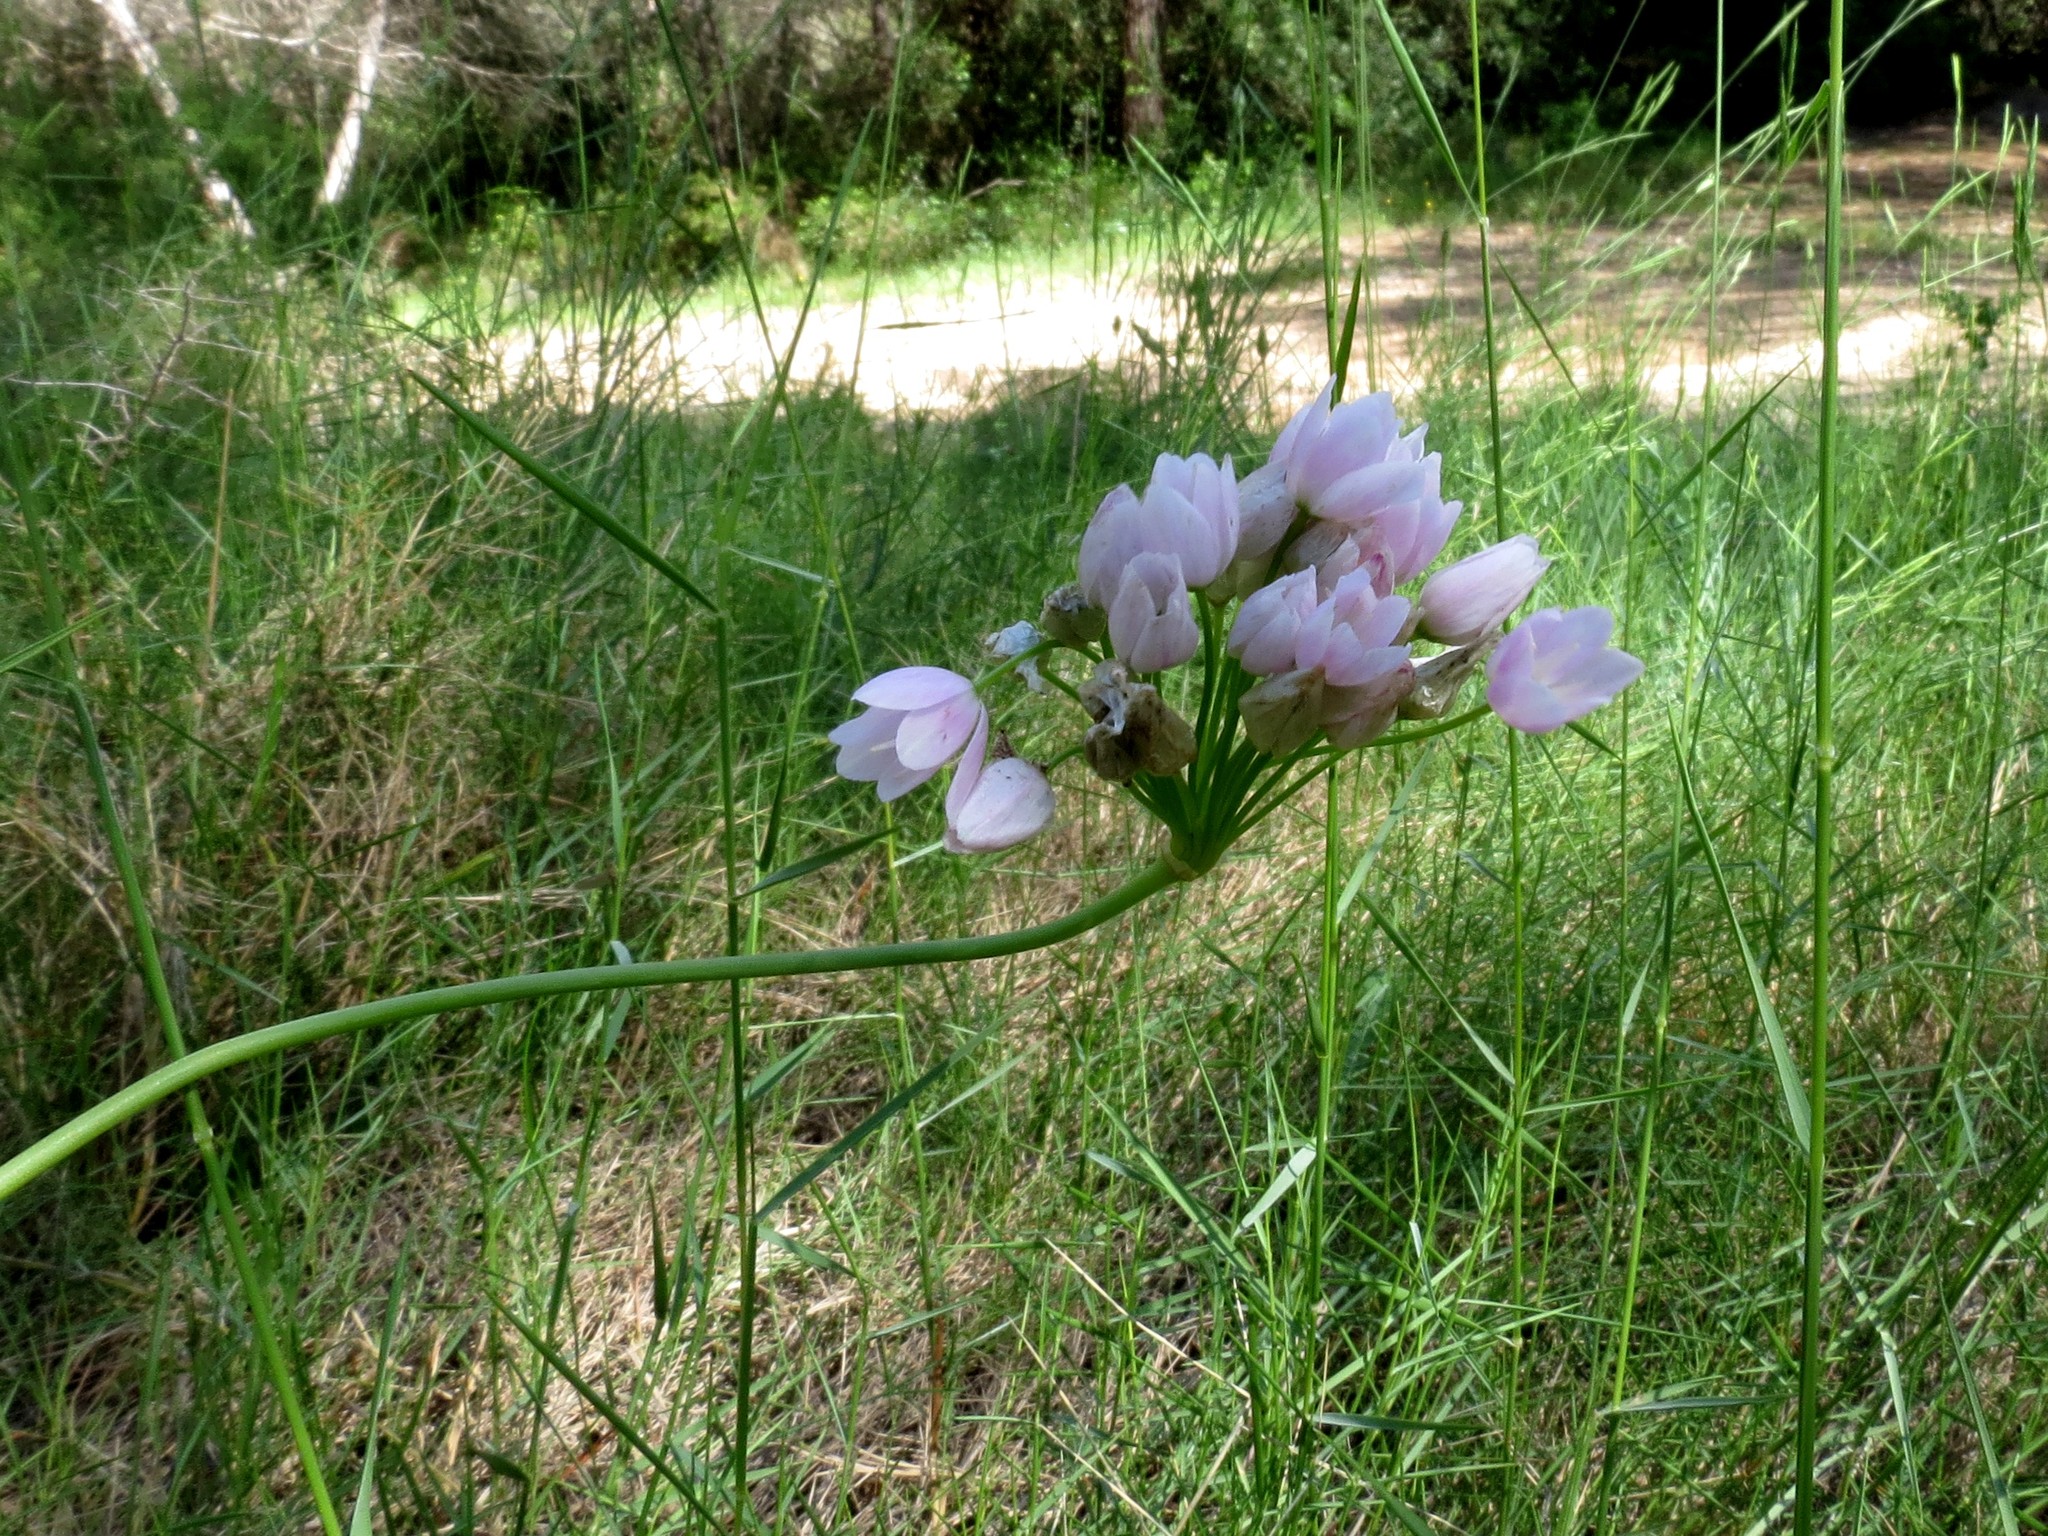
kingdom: Plantae
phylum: Tracheophyta
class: Liliopsida
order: Asparagales
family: Amaryllidaceae
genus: Allium
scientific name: Allium roseum
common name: Rosy garlic
